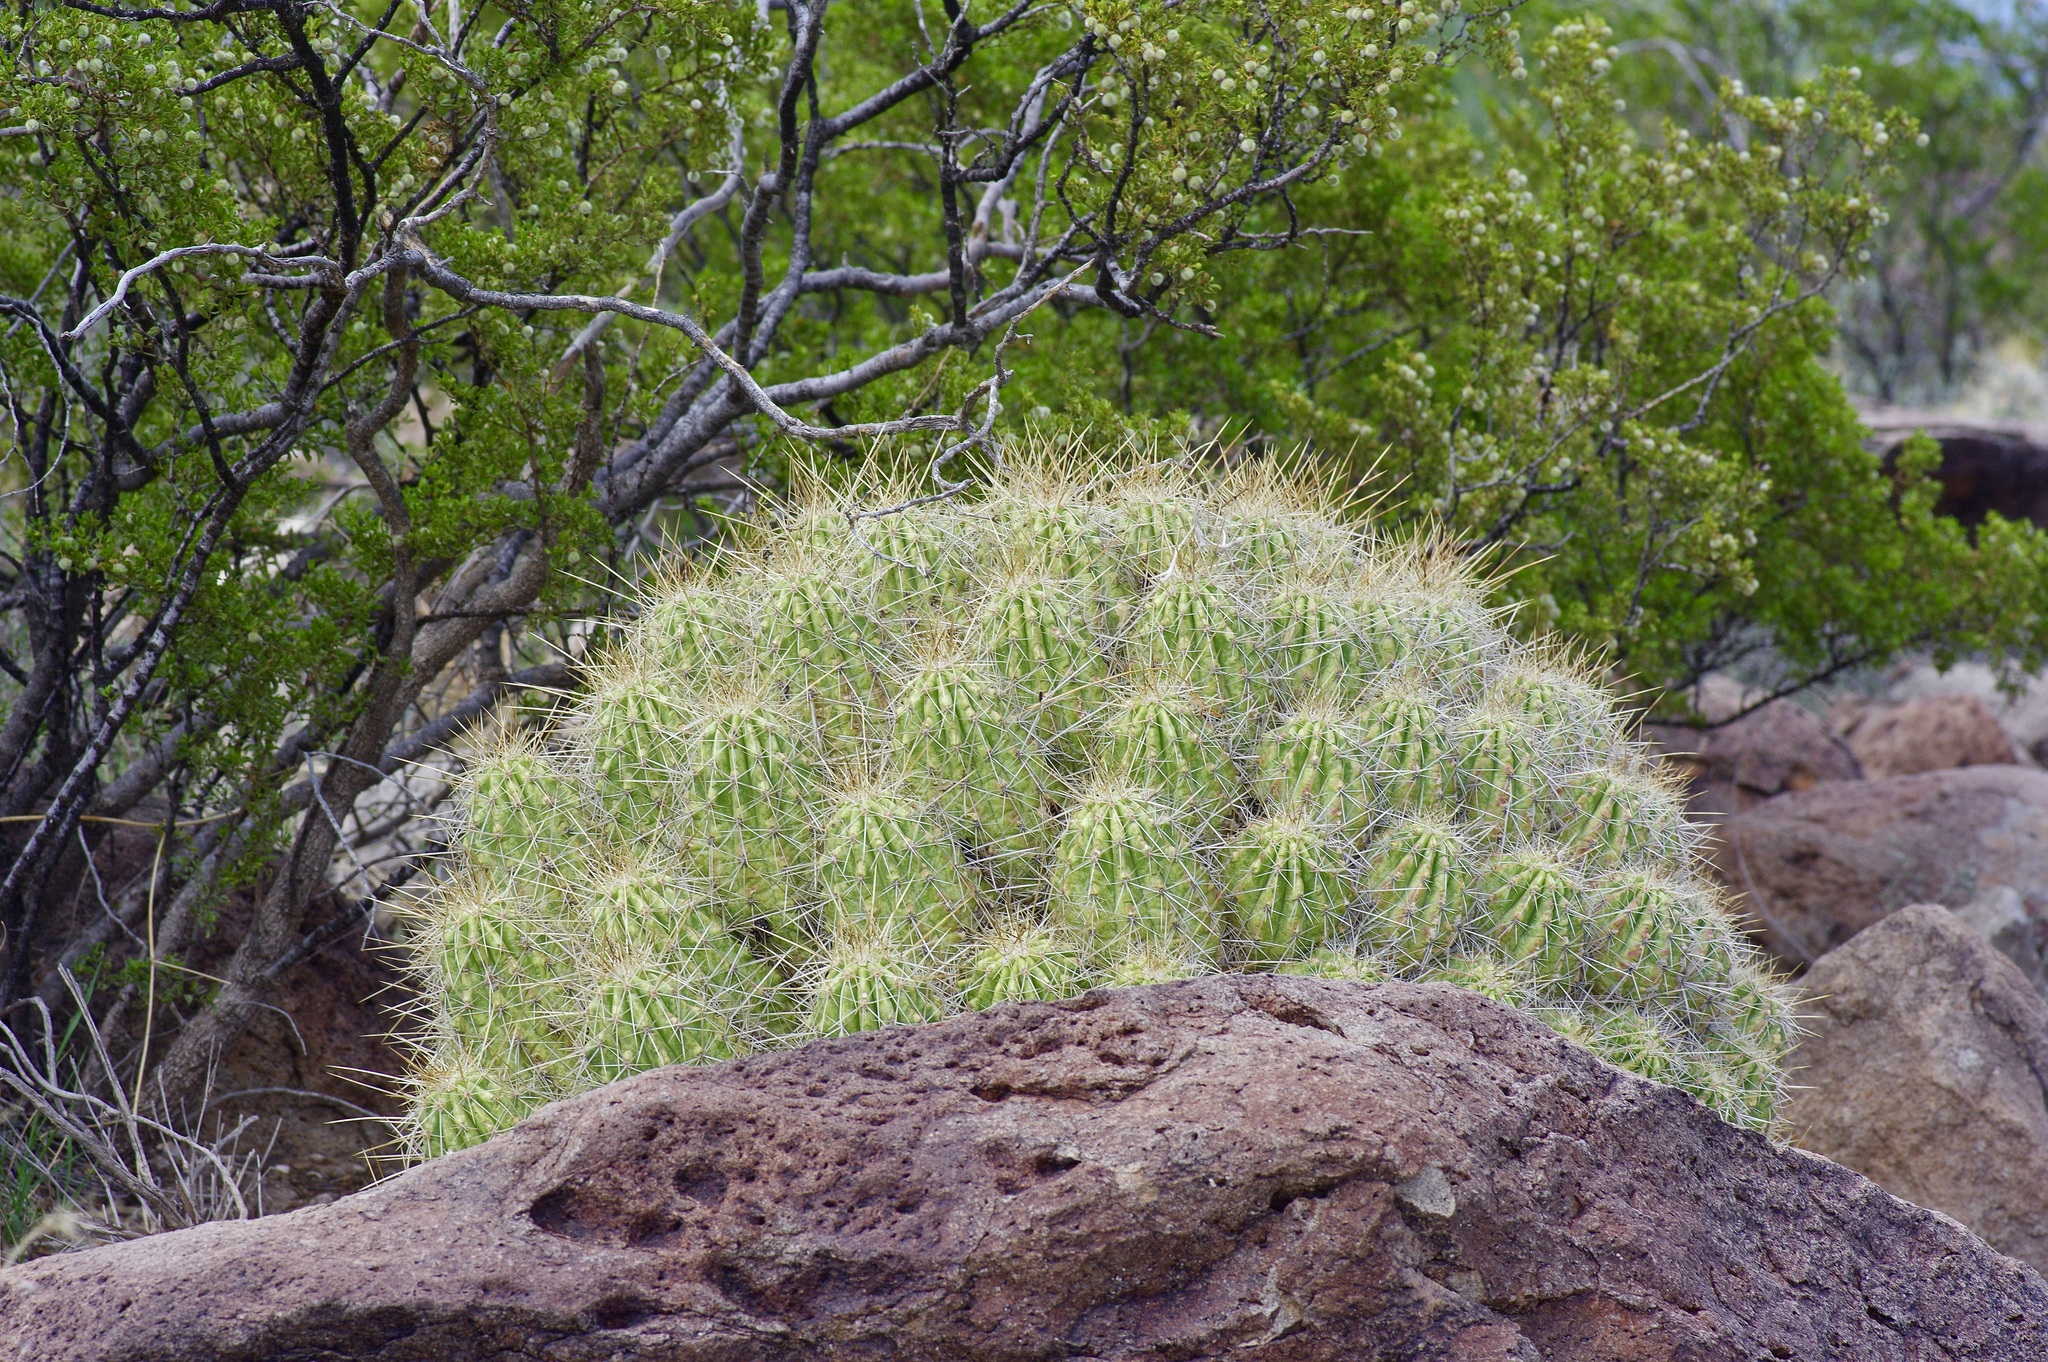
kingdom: Plantae
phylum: Tracheophyta
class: Magnoliopsida
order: Caryophyllales
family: Cactaceae
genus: Echinocereus
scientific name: Echinocereus stramineus
